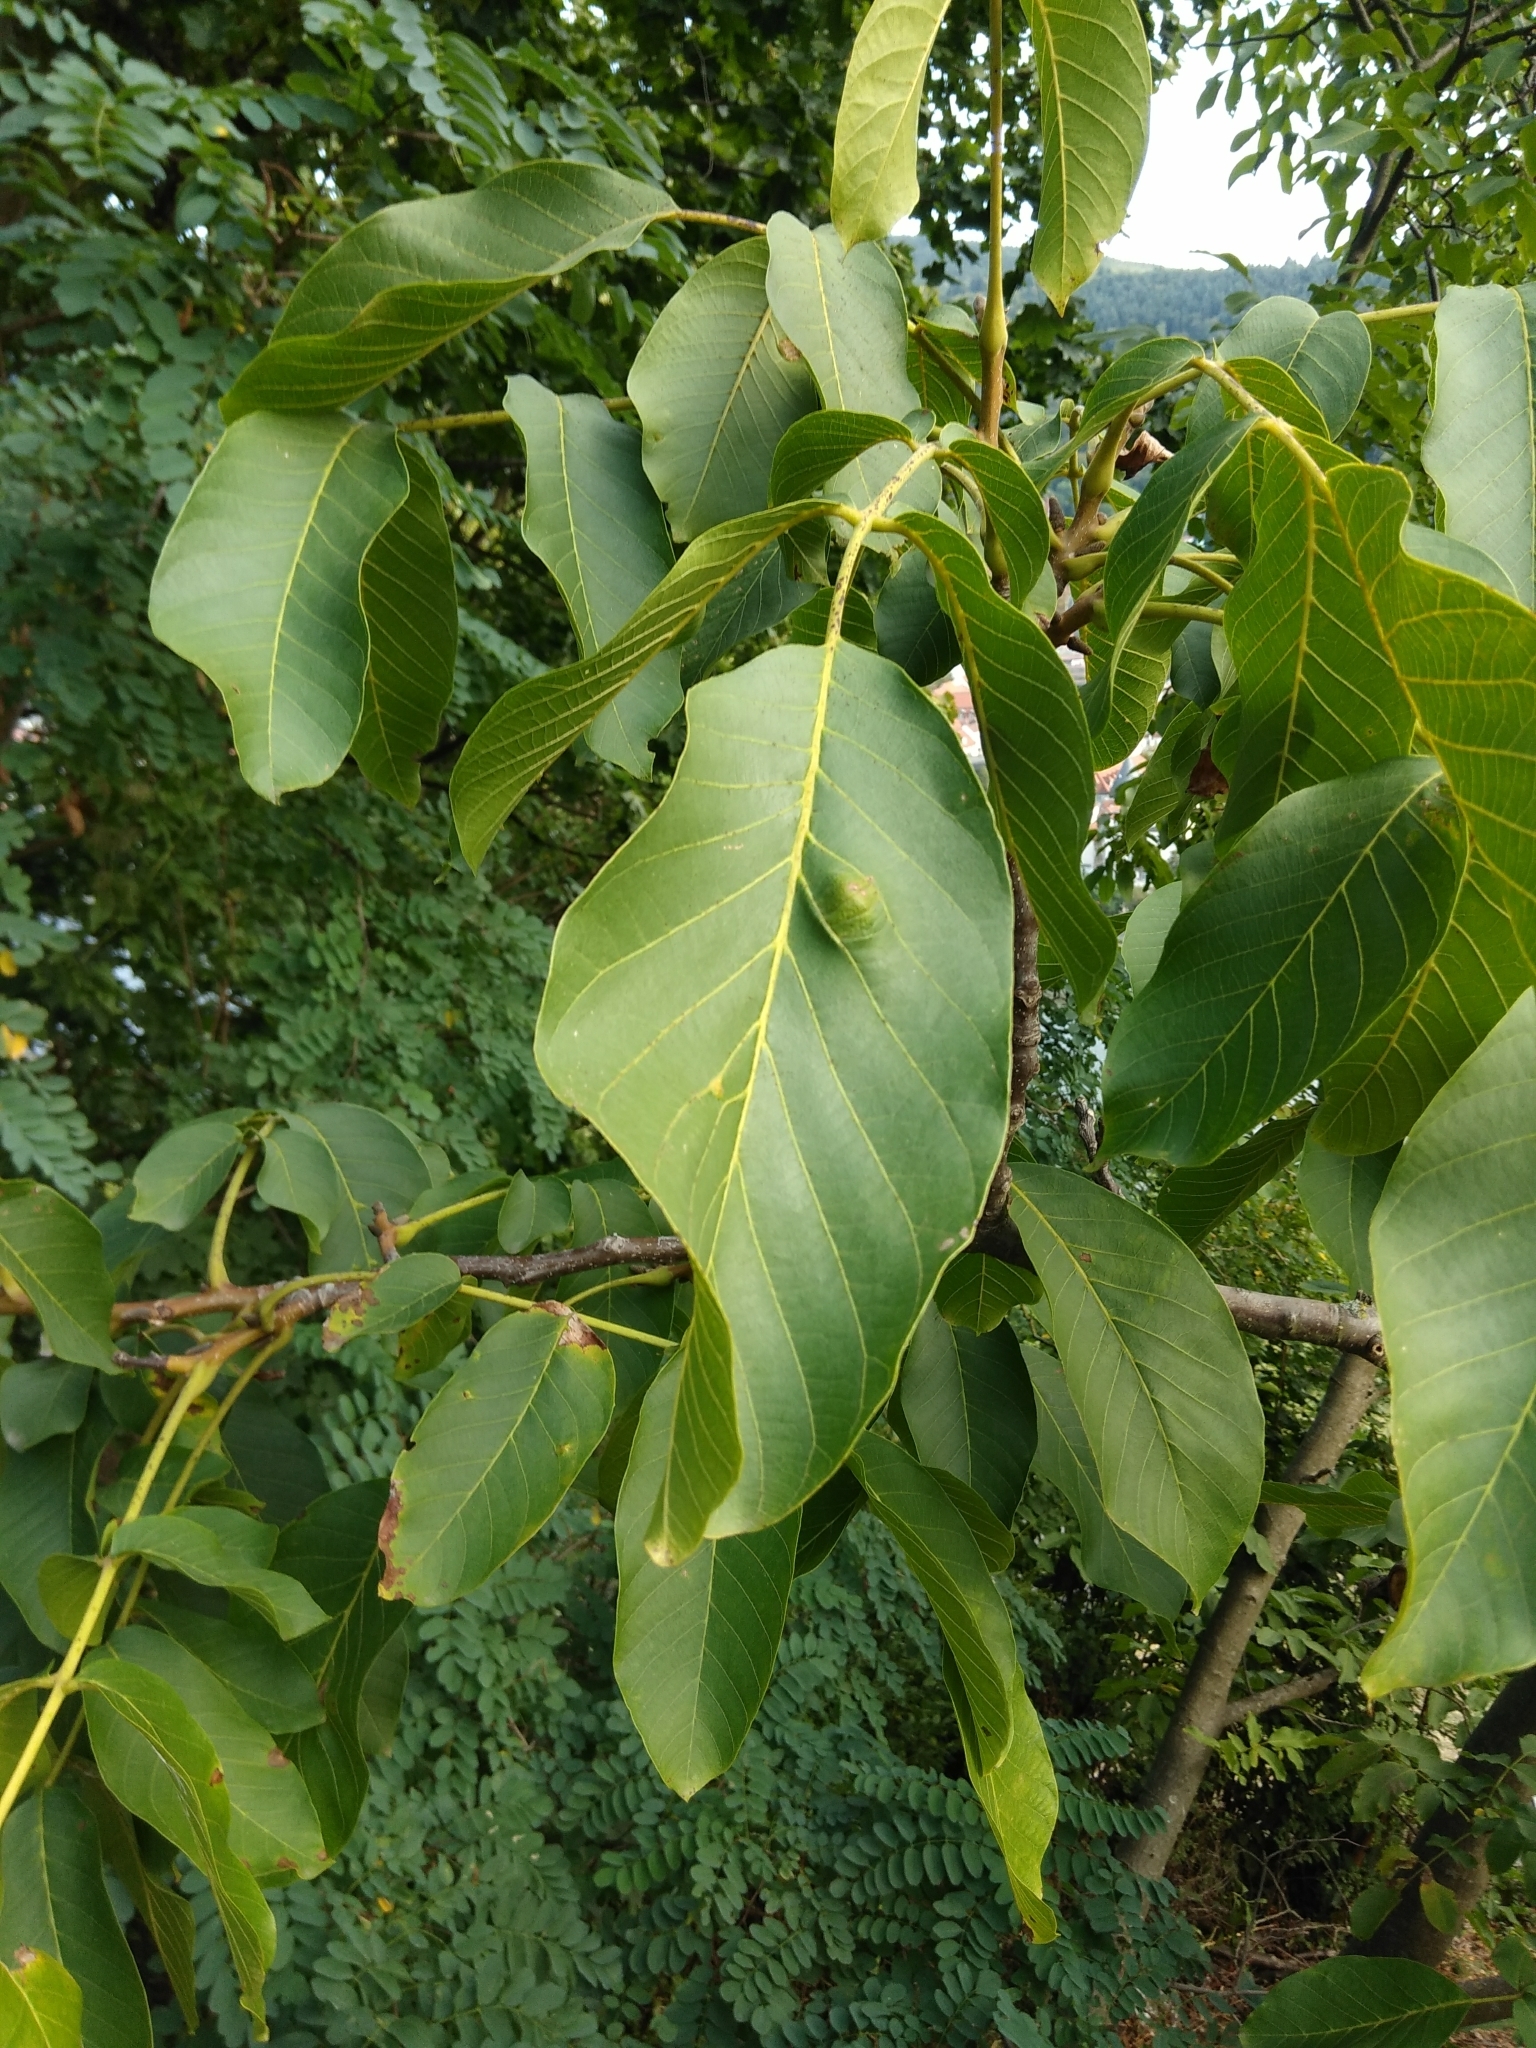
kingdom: Animalia
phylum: Arthropoda
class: Arachnida
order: Trombidiformes
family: Eriophyidae
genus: Aceria
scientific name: Aceria erinea
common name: Persian walnut erineum mite
